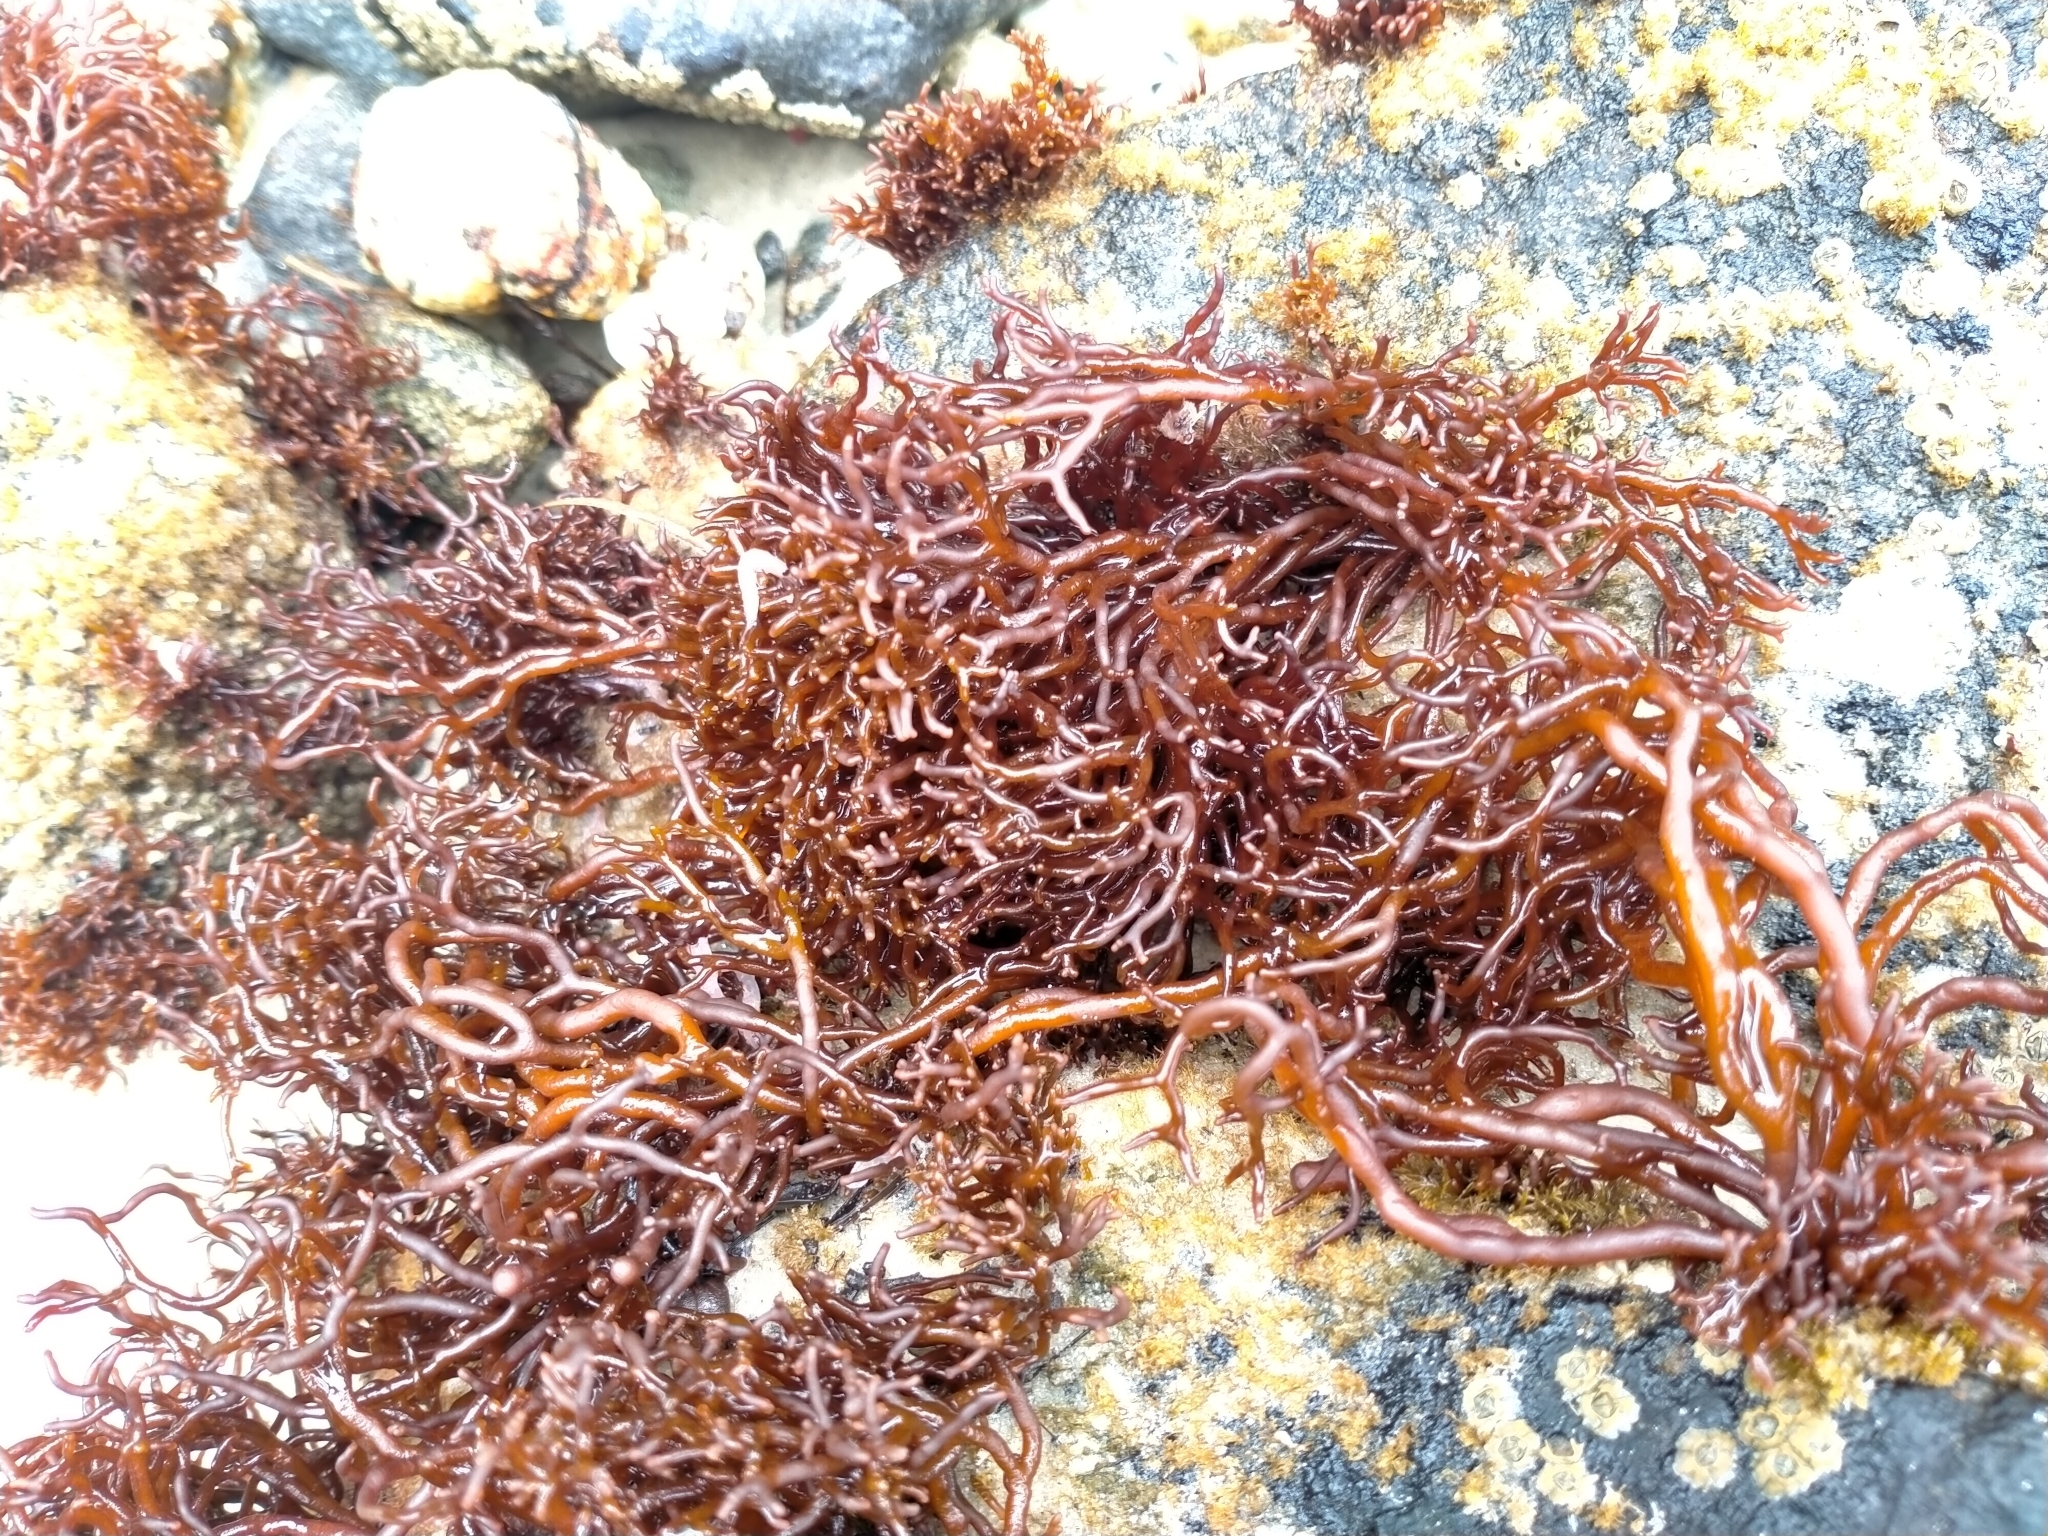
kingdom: Plantae
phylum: Rhodophyta
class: Florideophyceae
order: Hildenbrandiales
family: Hildenbrandiaceae
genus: Apophlaea
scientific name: Apophlaea lyallii
